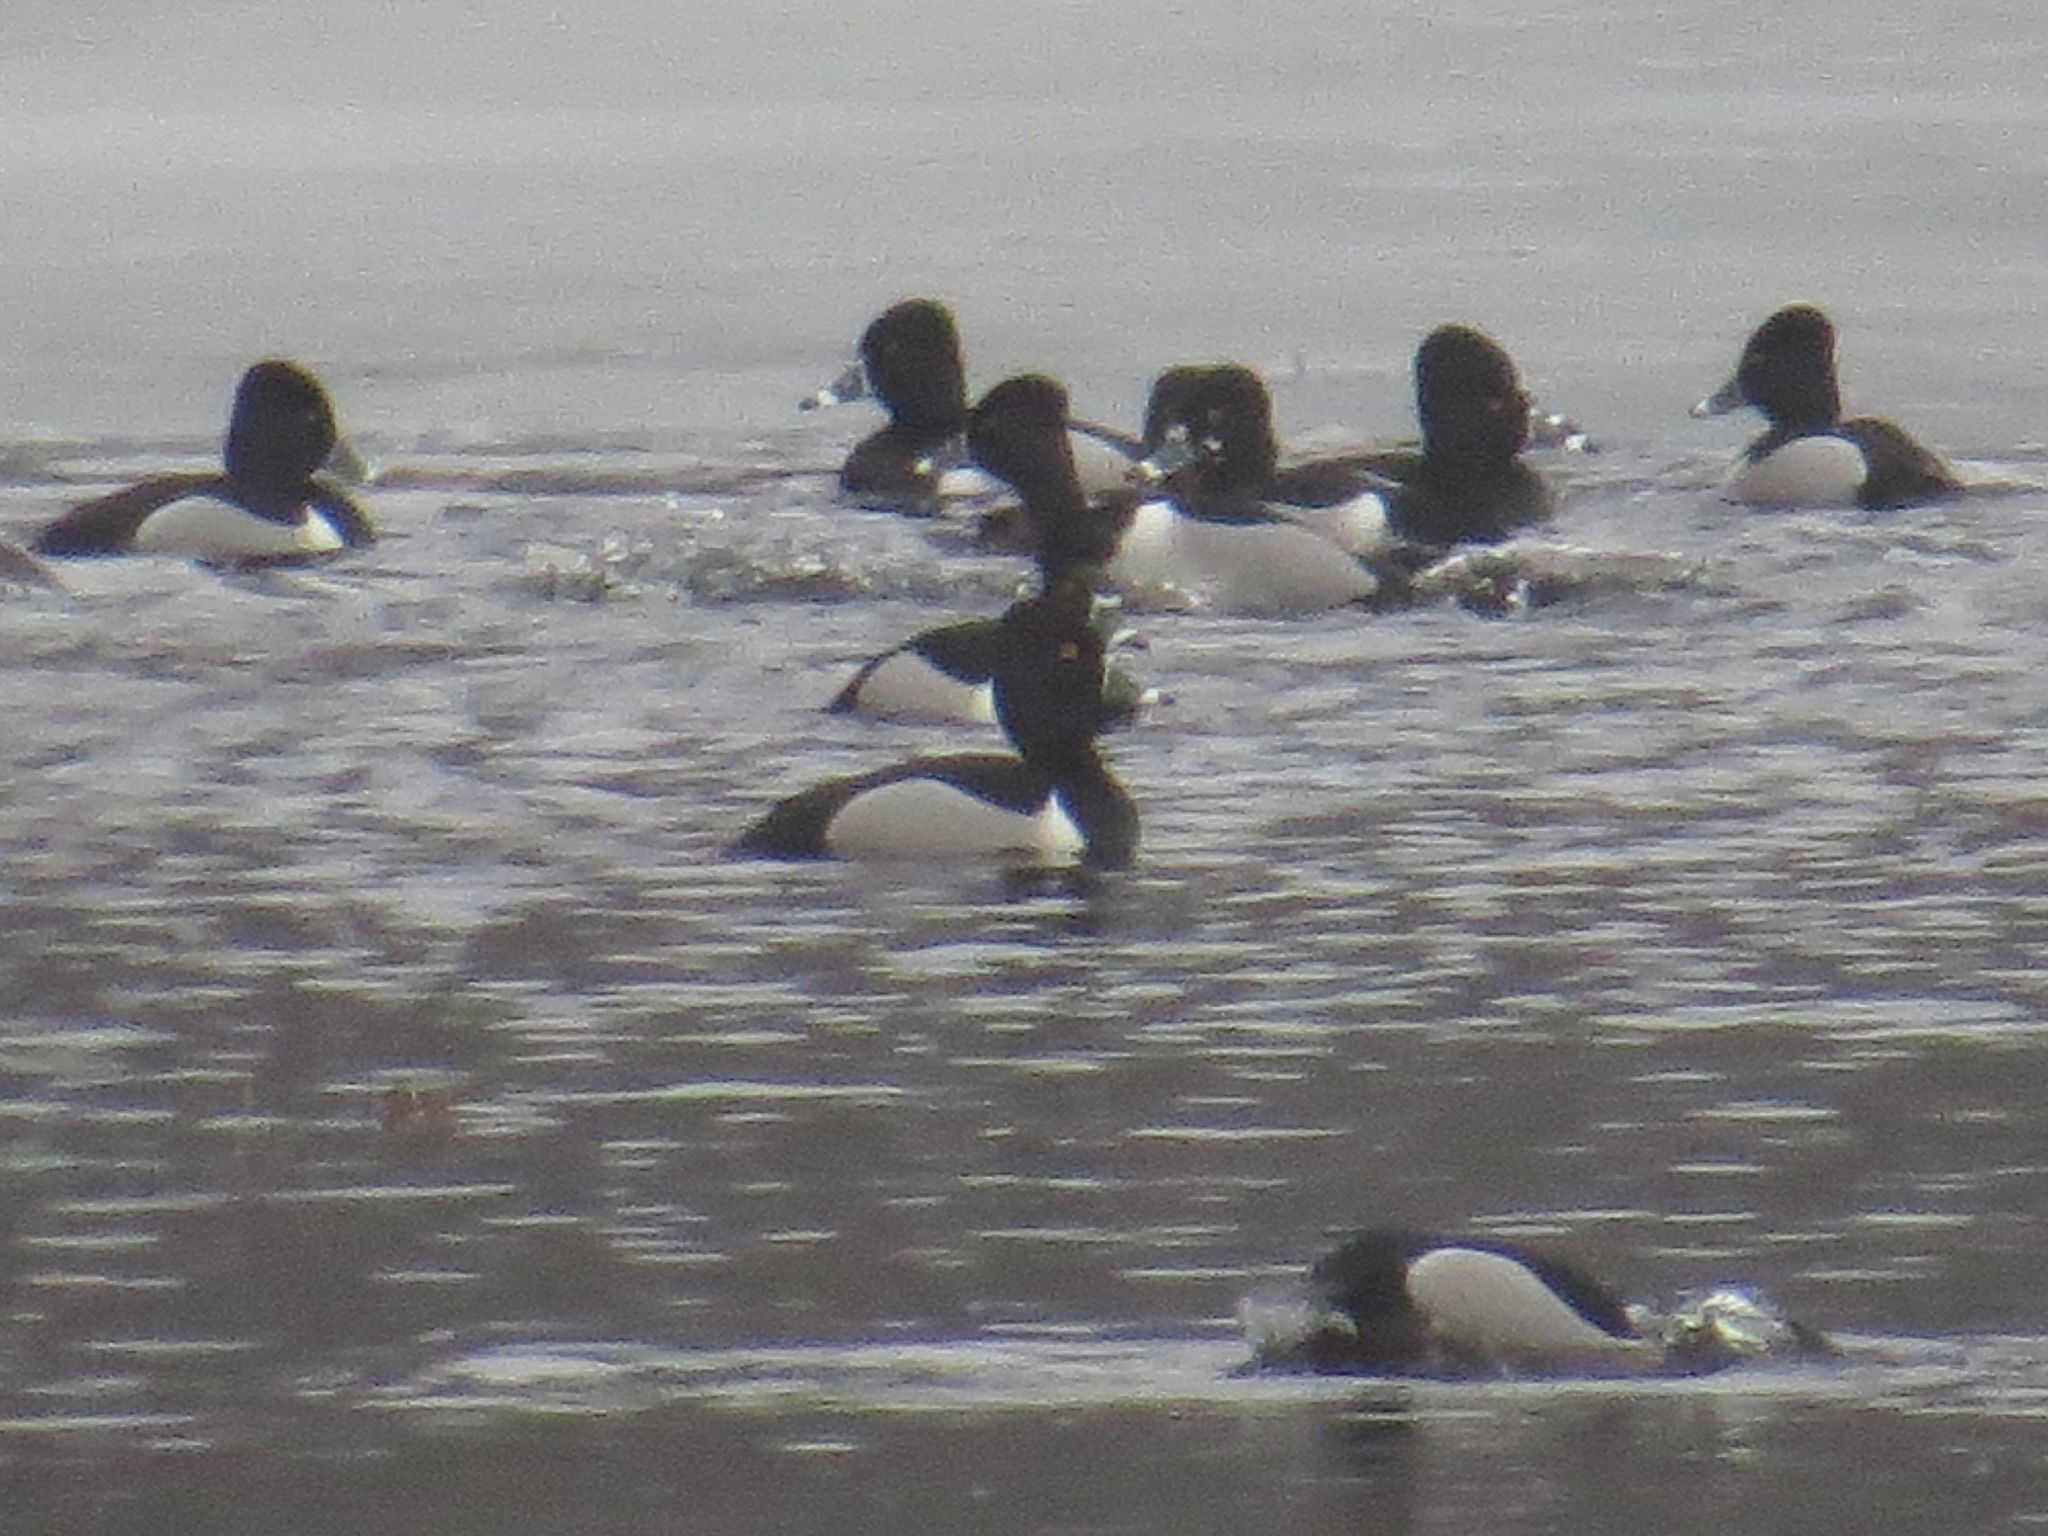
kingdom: Animalia
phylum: Chordata
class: Aves
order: Anseriformes
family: Anatidae
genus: Aythya
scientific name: Aythya collaris
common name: Ring-necked duck
